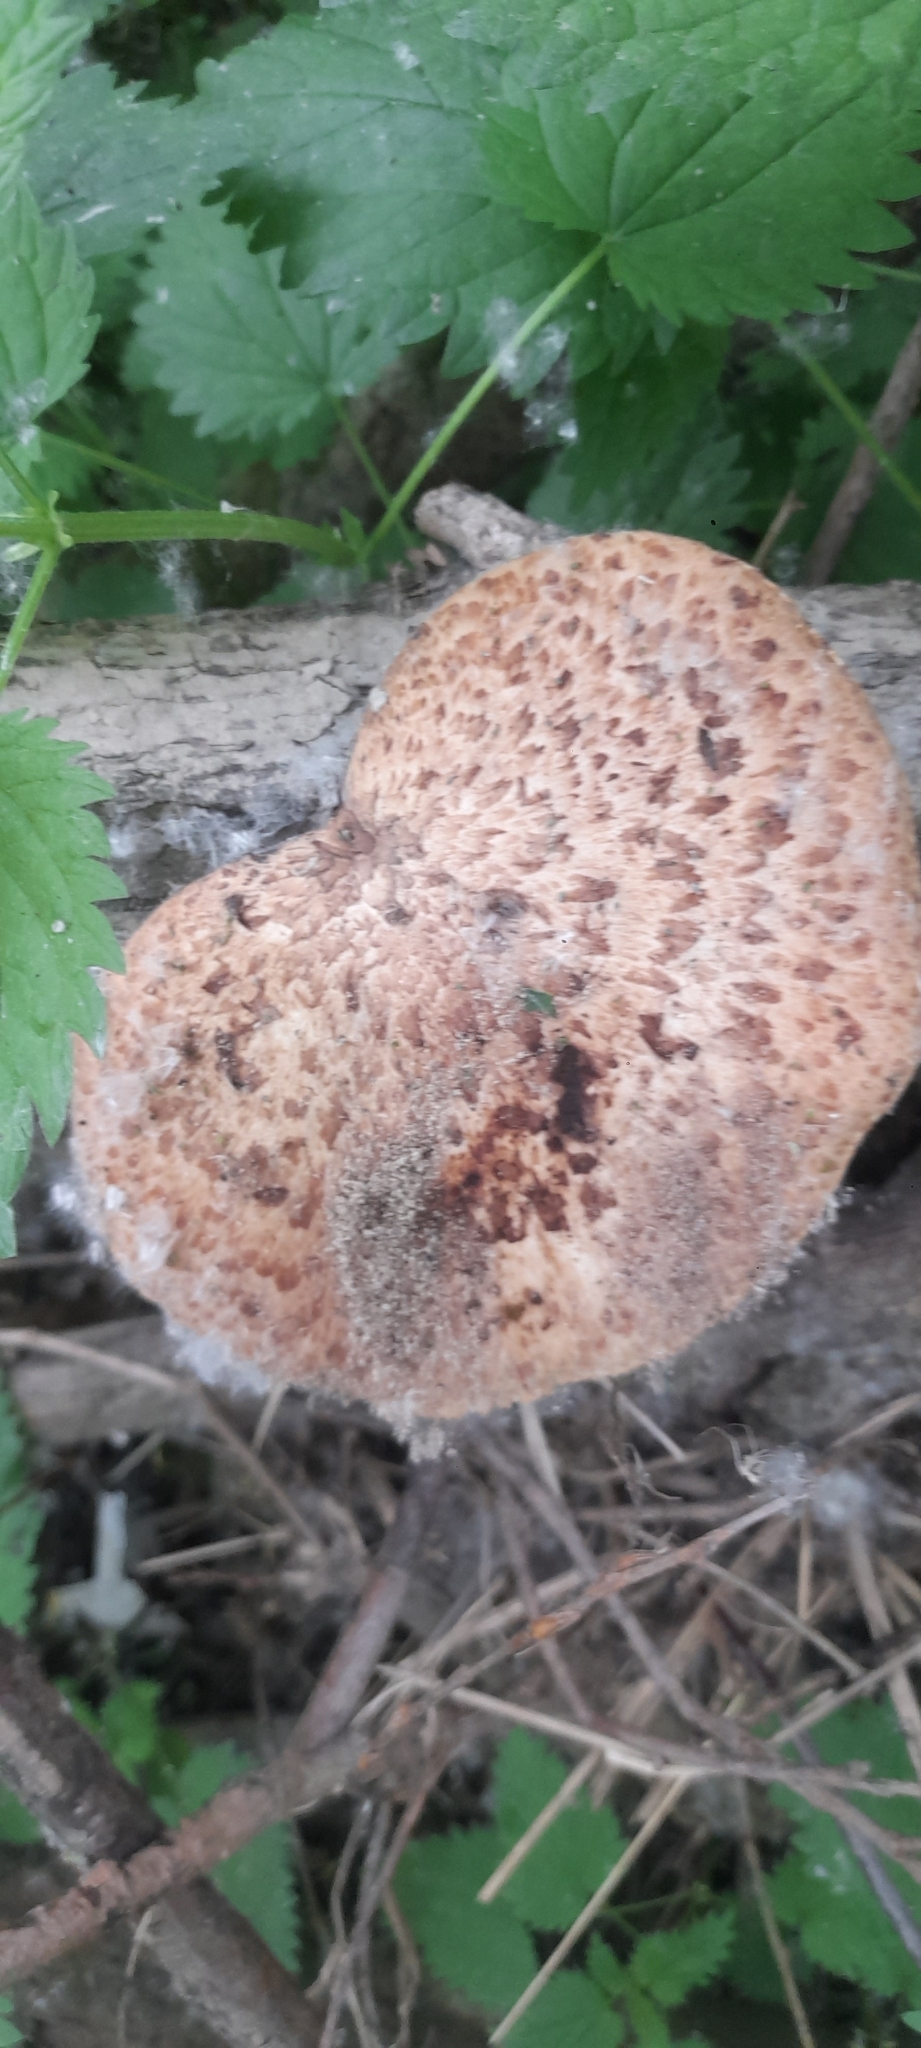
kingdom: Fungi
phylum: Basidiomycota
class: Agaricomycetes
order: Polyporales
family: Polyporaceae
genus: Cerioporus
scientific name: Cerioporus squamosus
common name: Dryad's saddle
